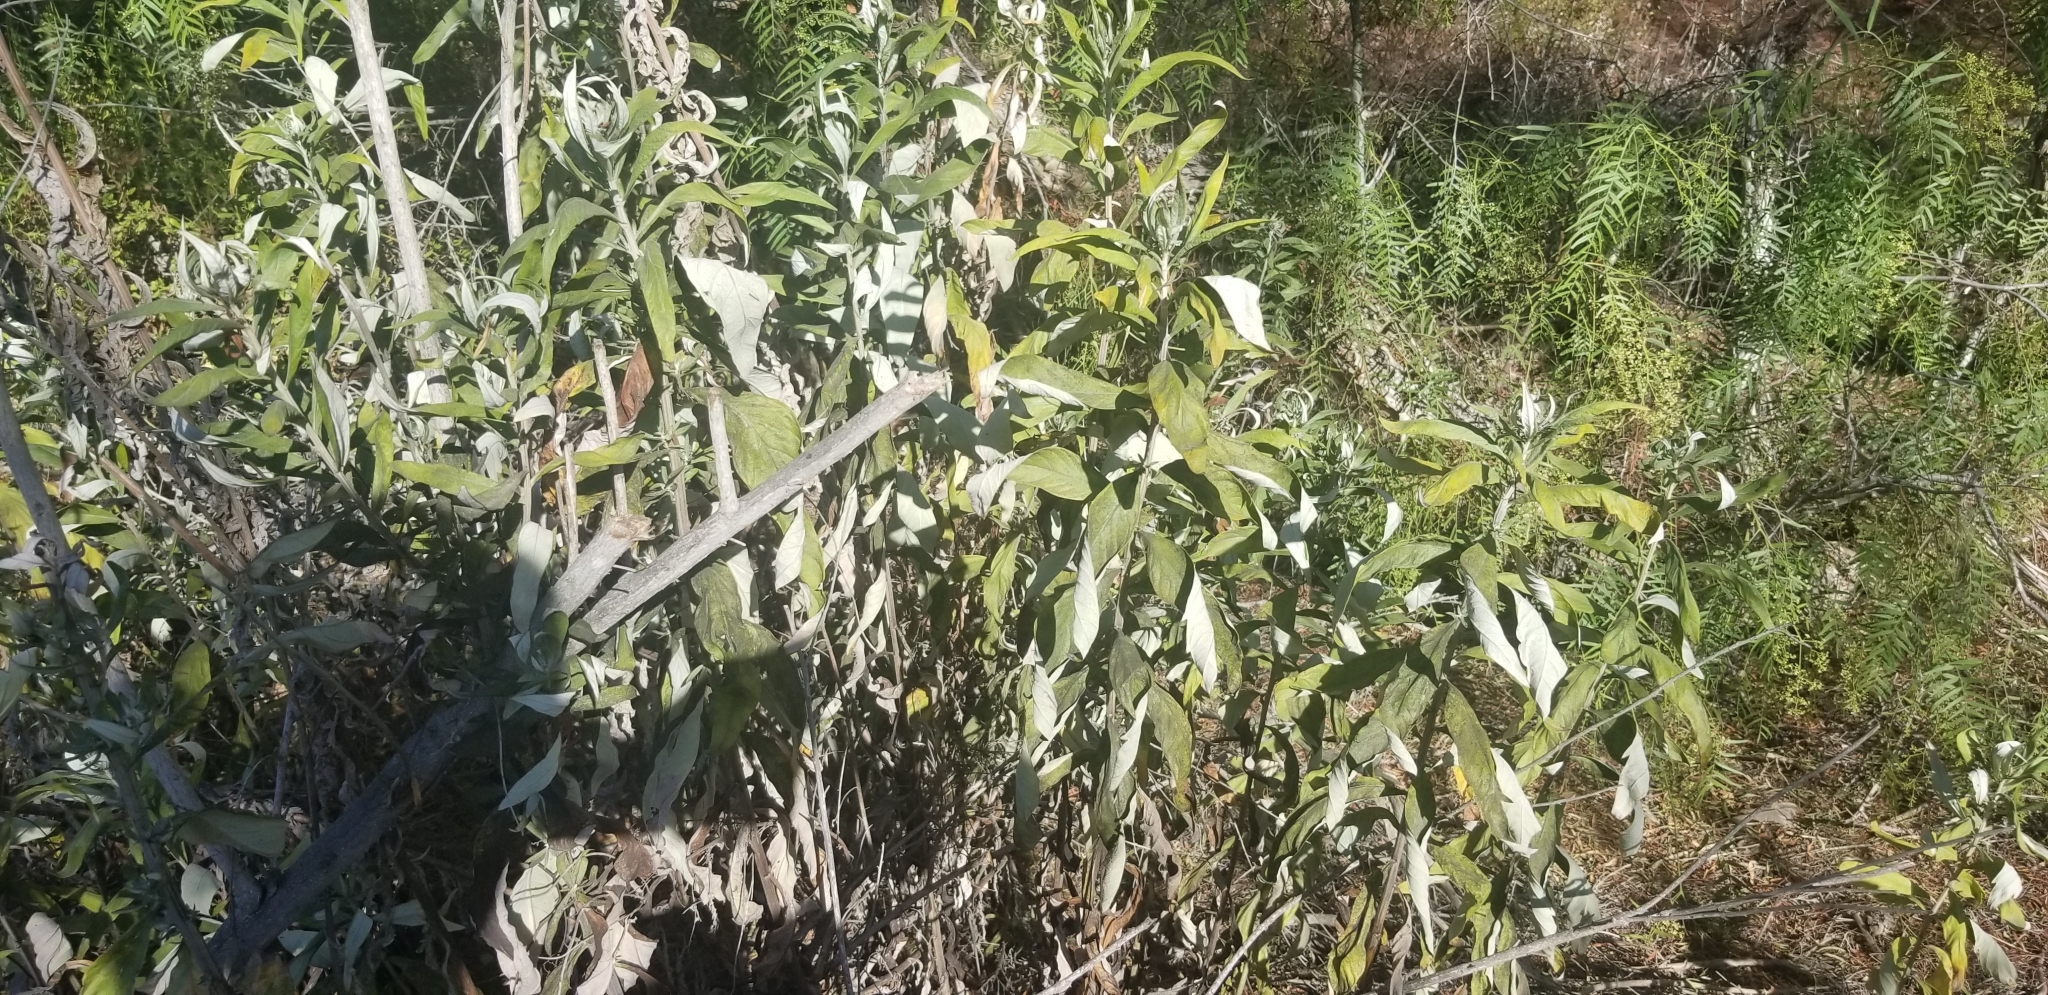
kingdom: Plantae
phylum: Tracheophyta
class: Magnoliopsida
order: Asterales
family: Asteraceae
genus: Artemisia
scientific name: Artemisia douglasiana
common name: Northwest mugwort
